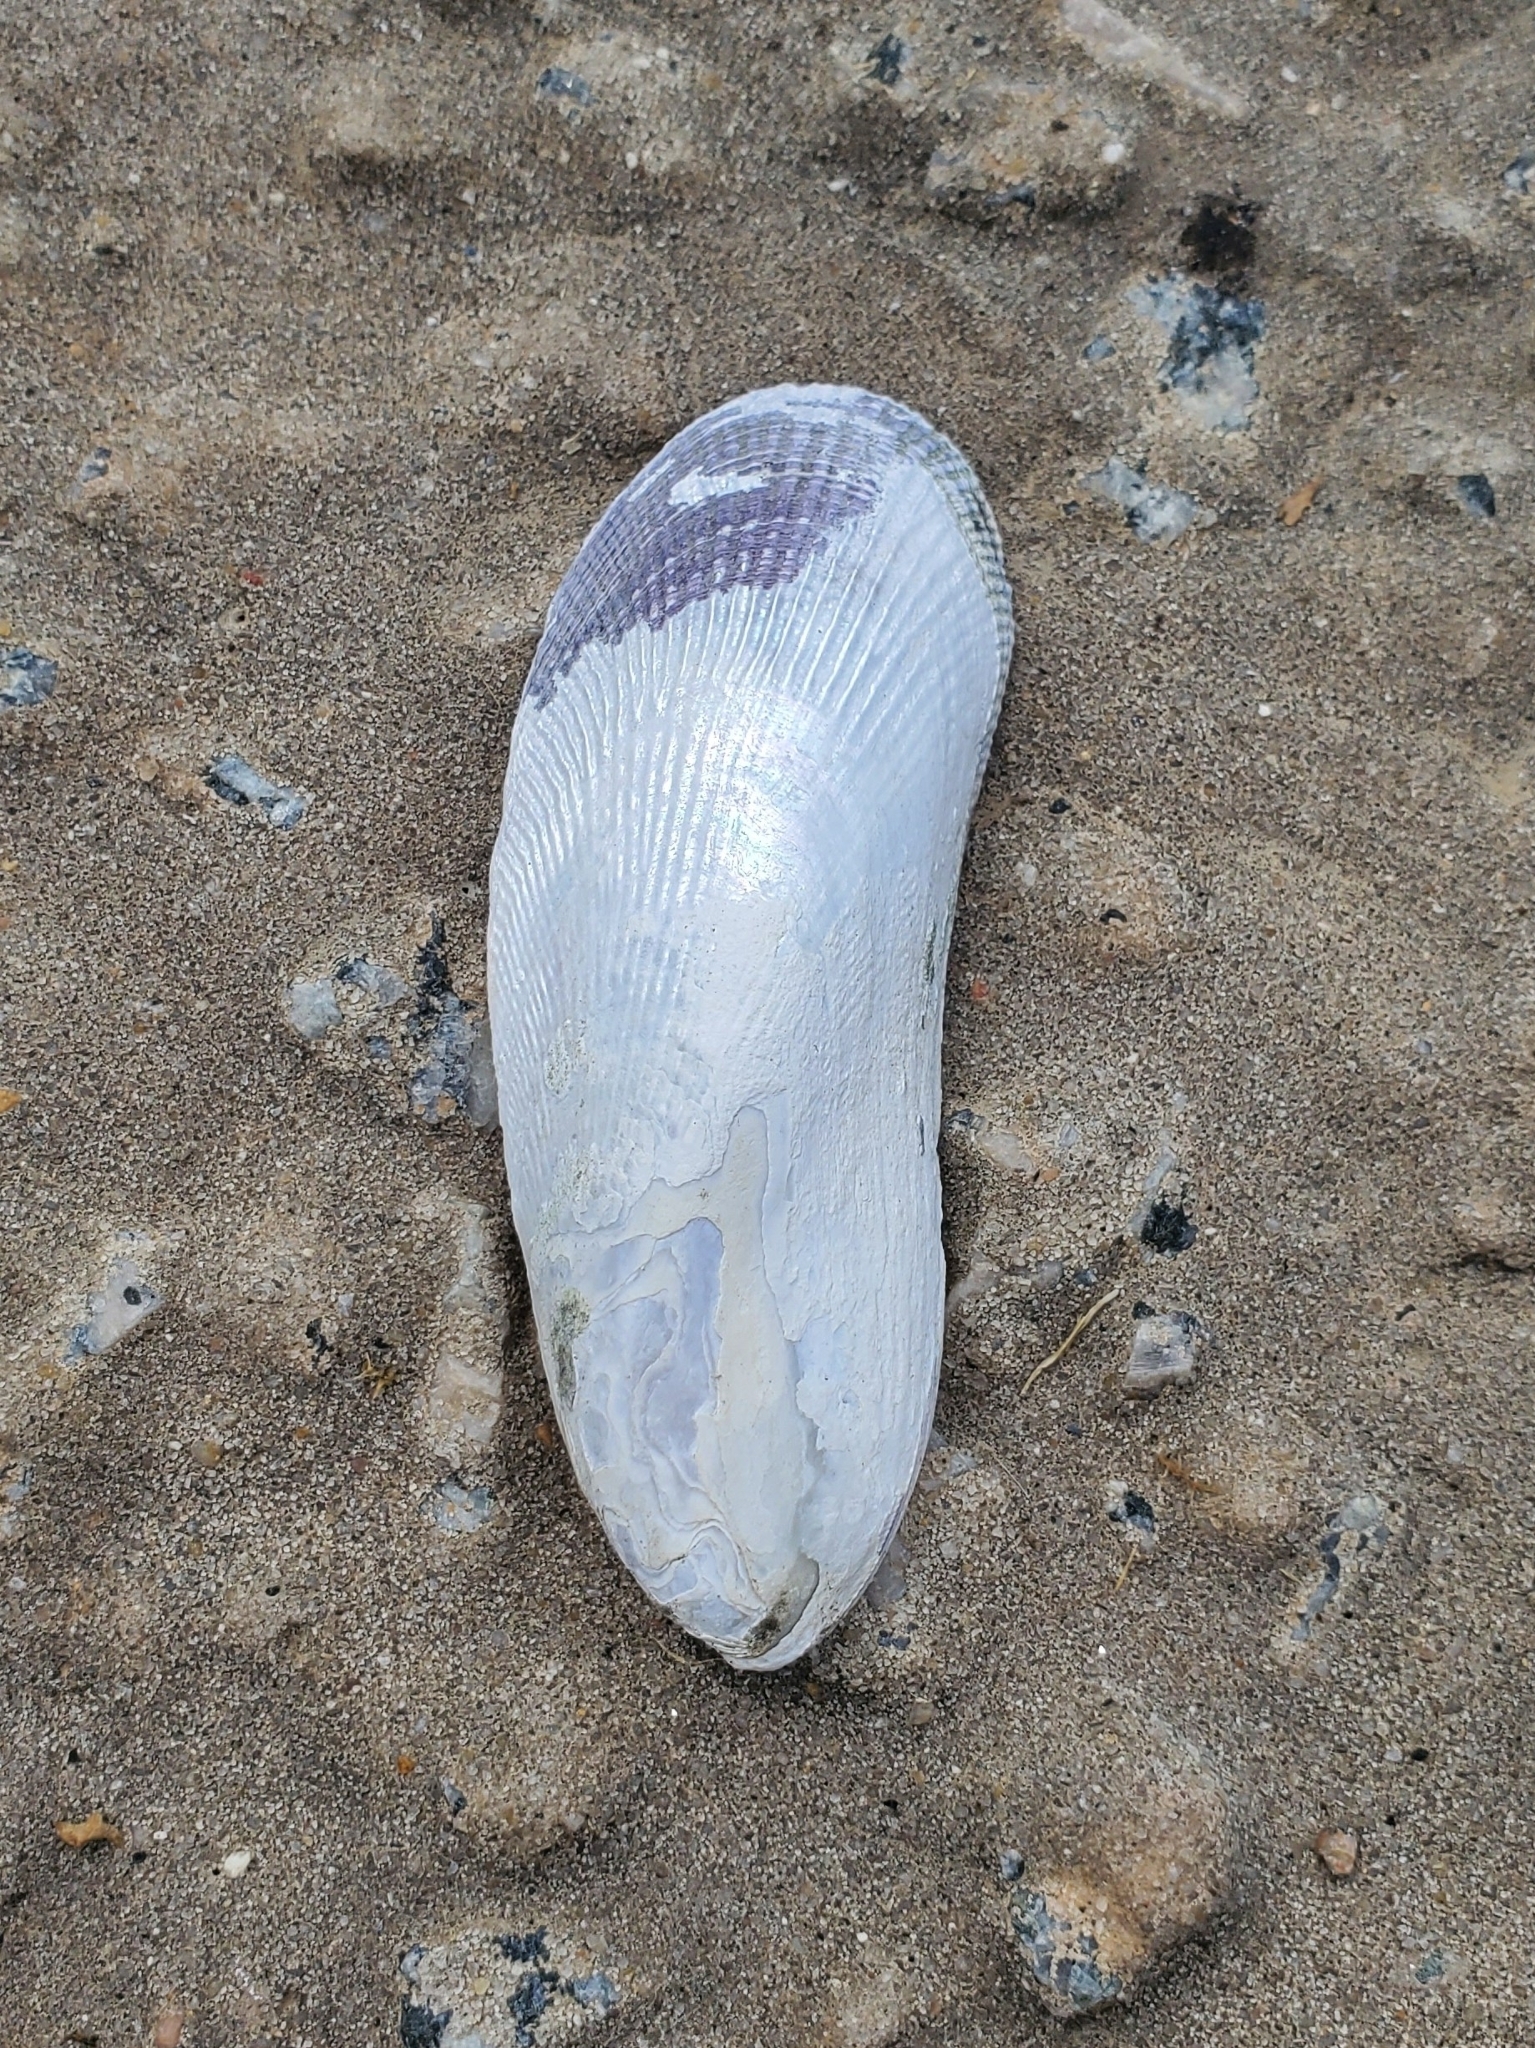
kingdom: Animalia
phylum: Mollusca
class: Bivalvia
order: Mytilida
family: Mytilidae
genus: Geukensia
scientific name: Geukensia demissa
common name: Ribbed mussel
